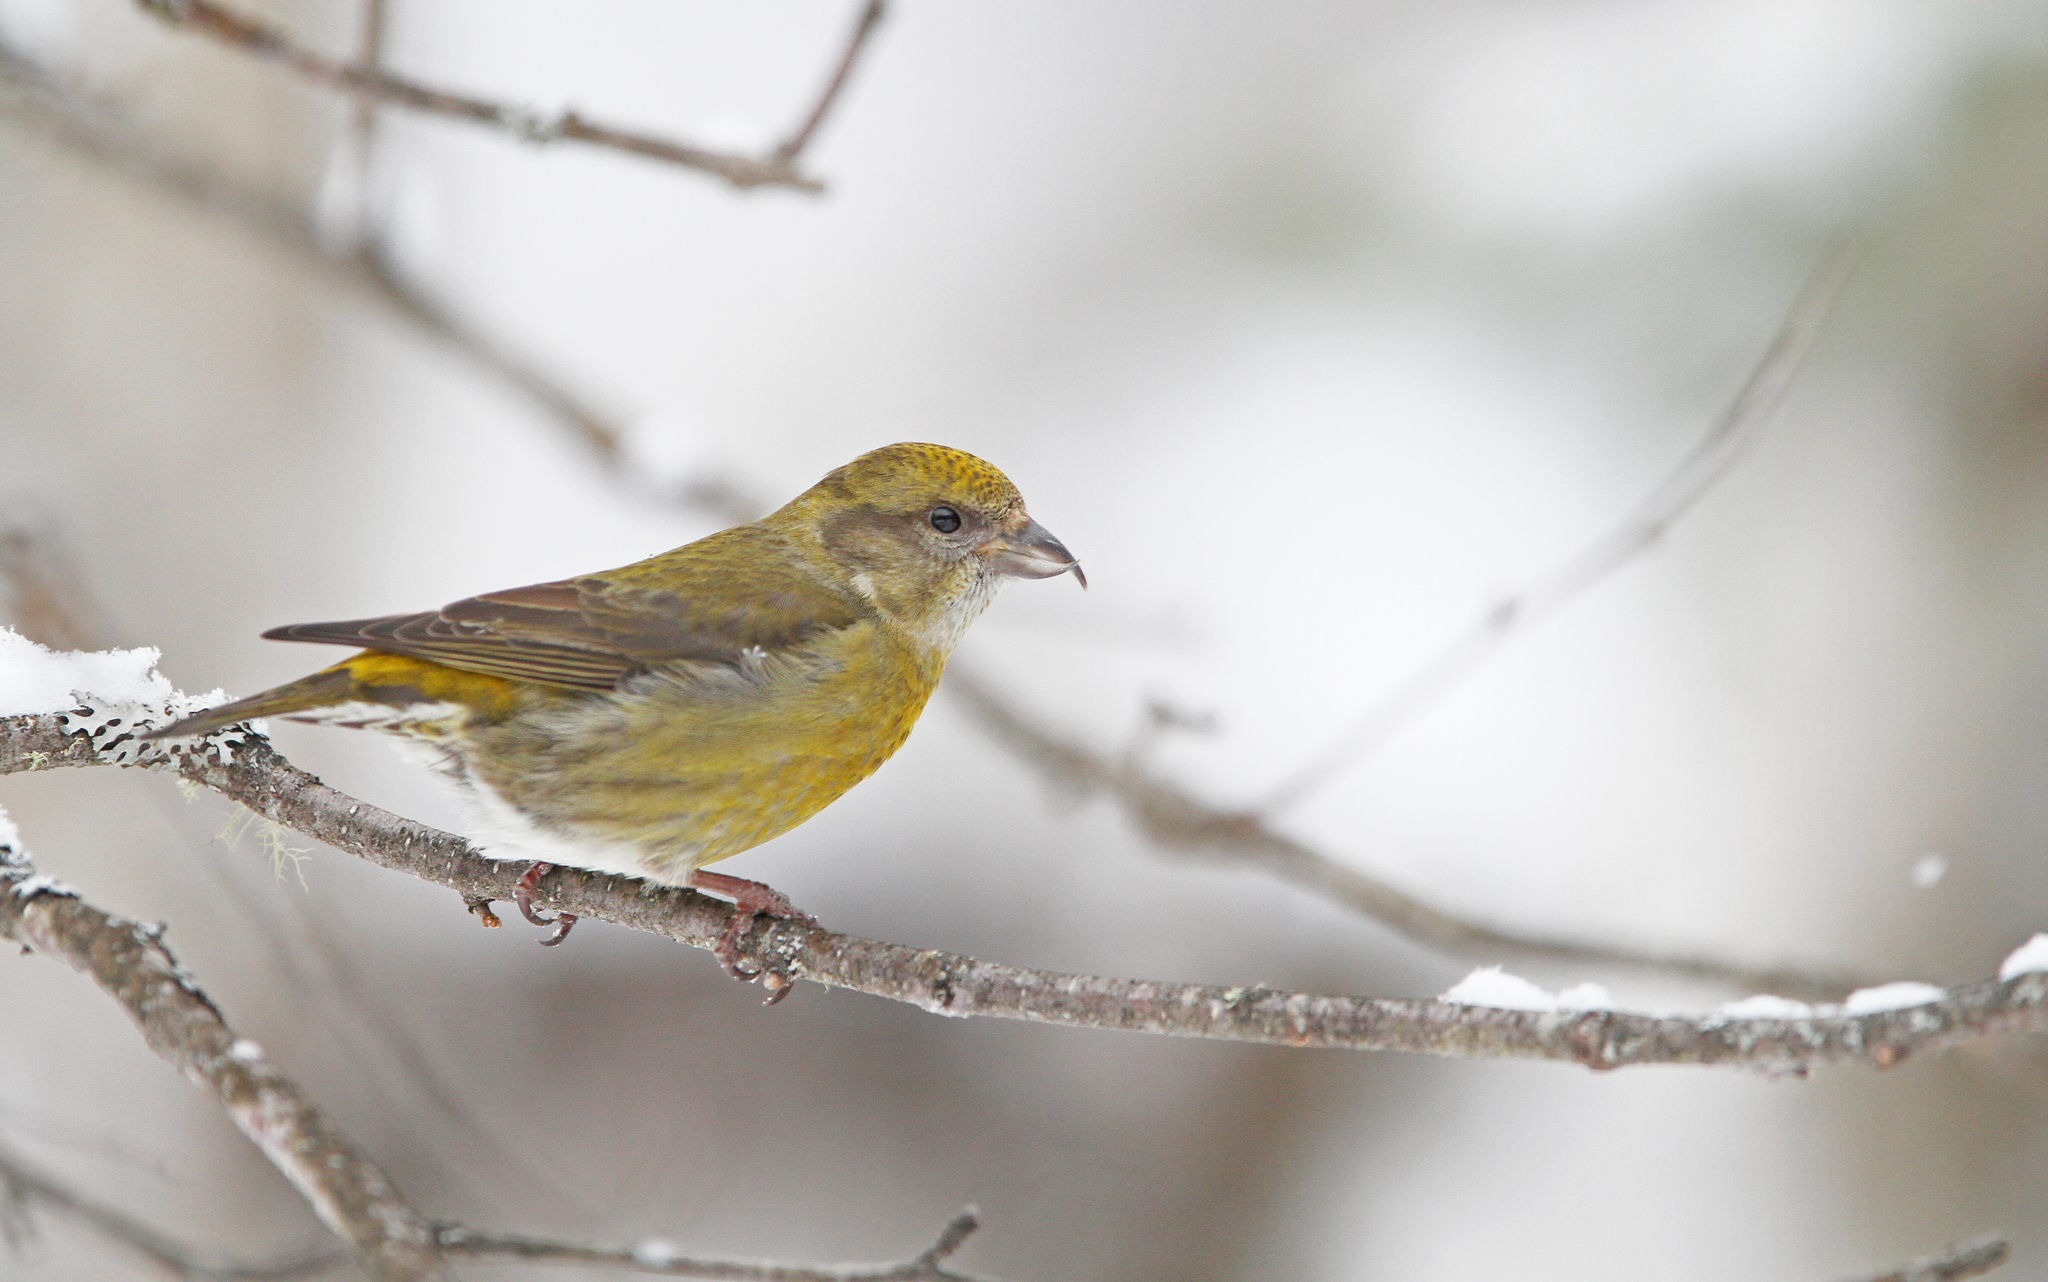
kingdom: Animalia
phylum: Chordata
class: Aves
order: Passeriformes
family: Fringillidae
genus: Loxia
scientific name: Loxia curvirostra
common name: Red crossbill
